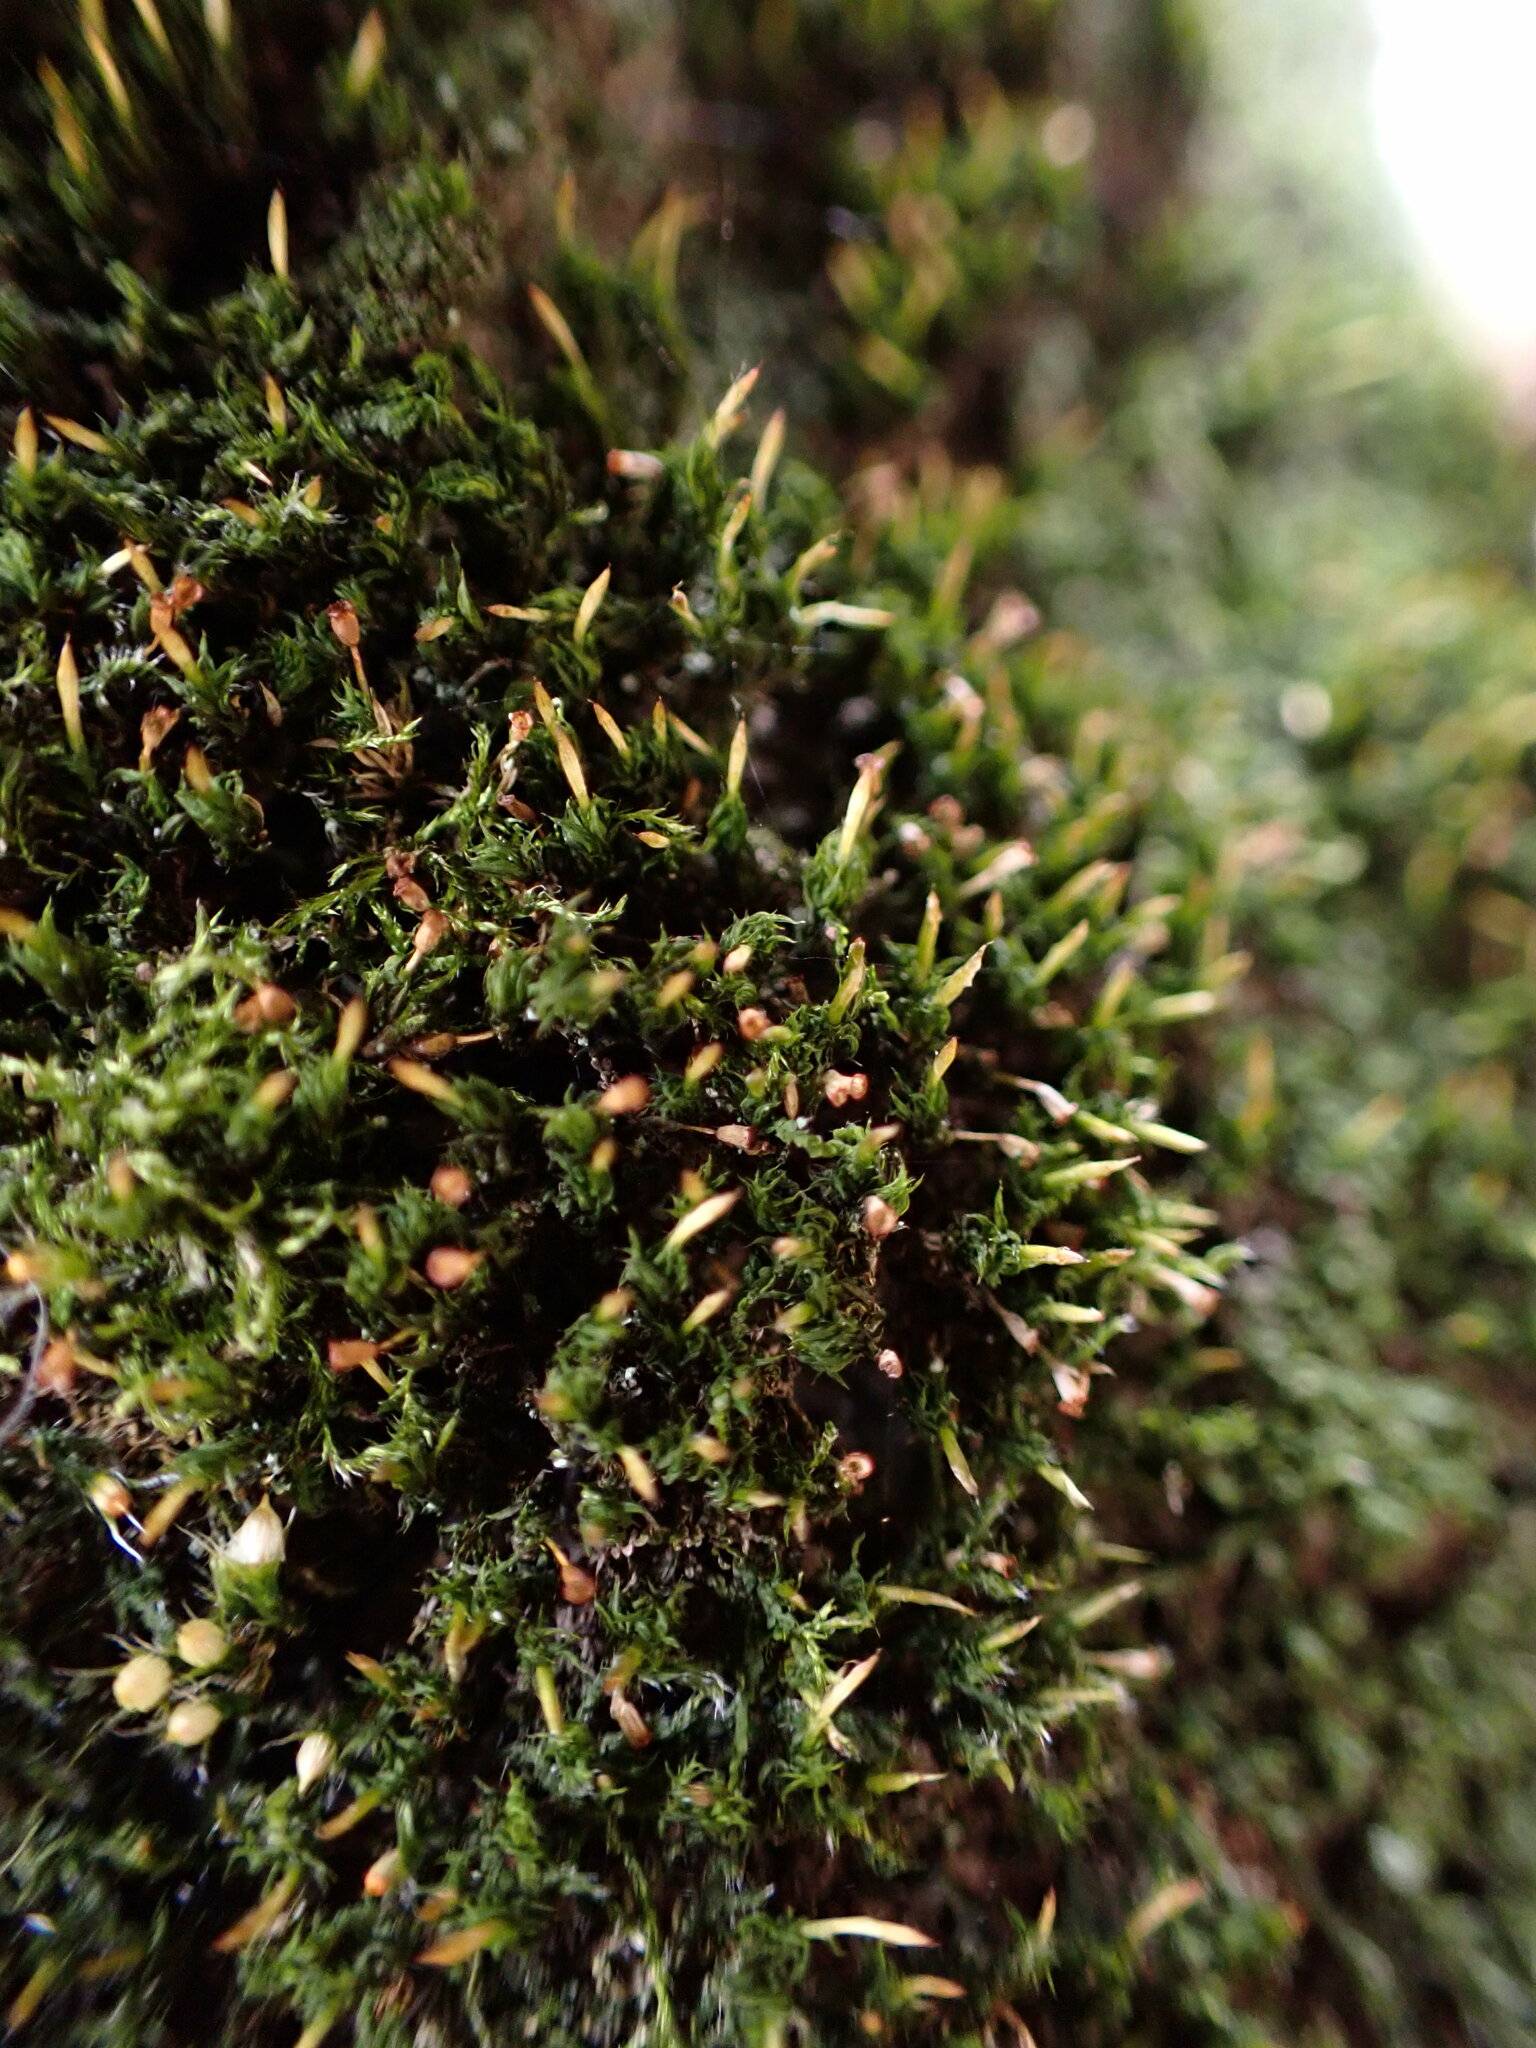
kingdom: Plantae
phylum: Bryophyta
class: Bryopsida
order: Dicranales
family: Rhabdoweisiaceae
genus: Glyphomitrium
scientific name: Glyphomitrium humillimum
